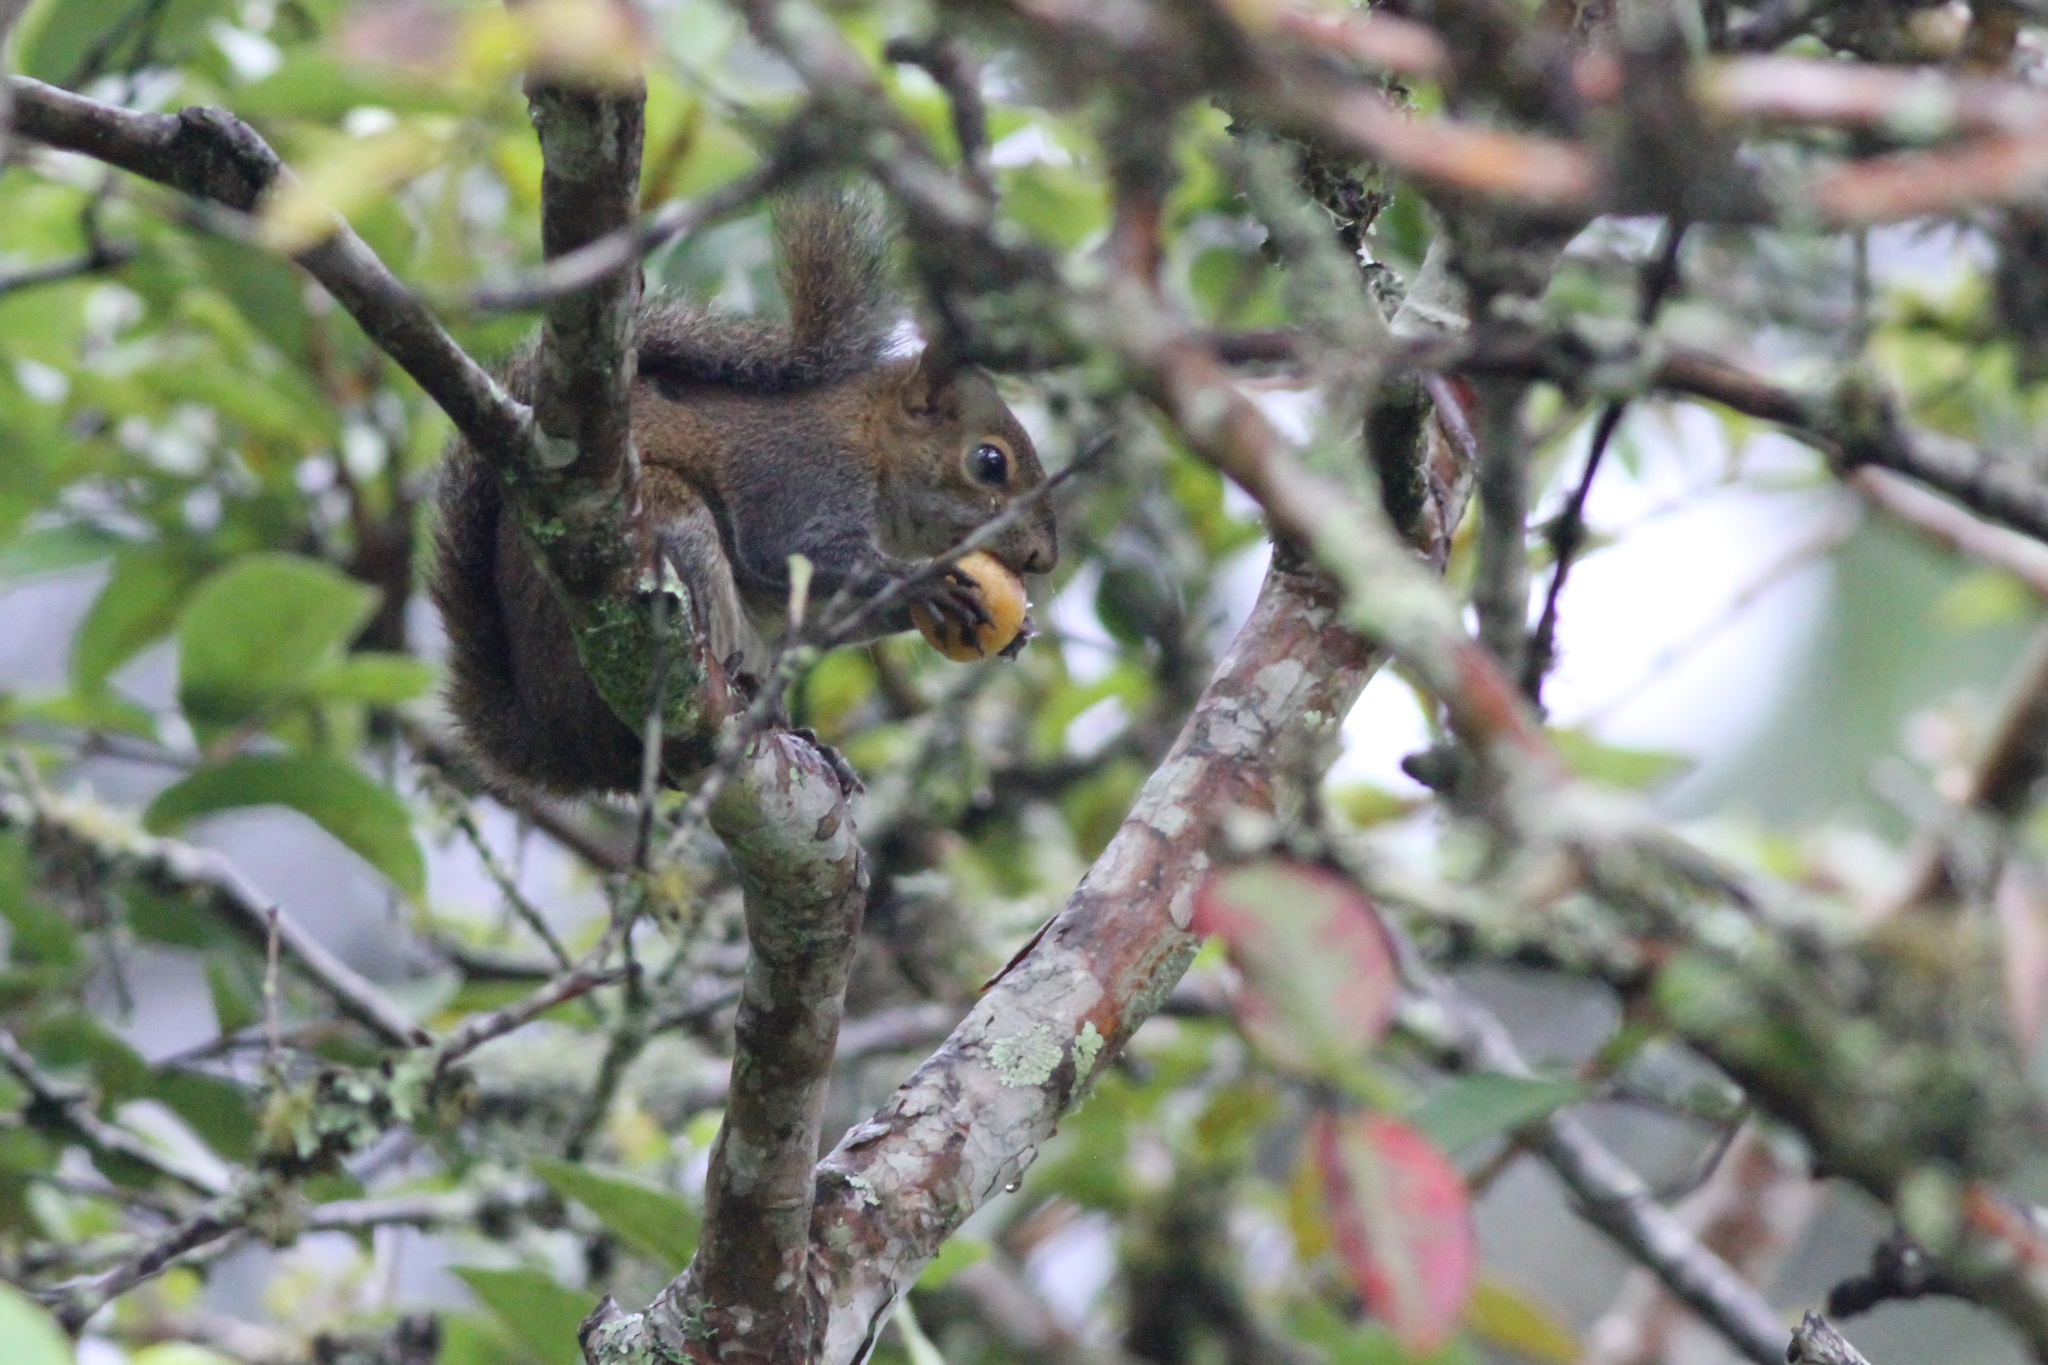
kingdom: Animalia
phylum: Chordata
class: Mammalia
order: Rodentia
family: Sciuridae
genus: Sciurus
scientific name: Sciurus deppei
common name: Deppe's squirrel
